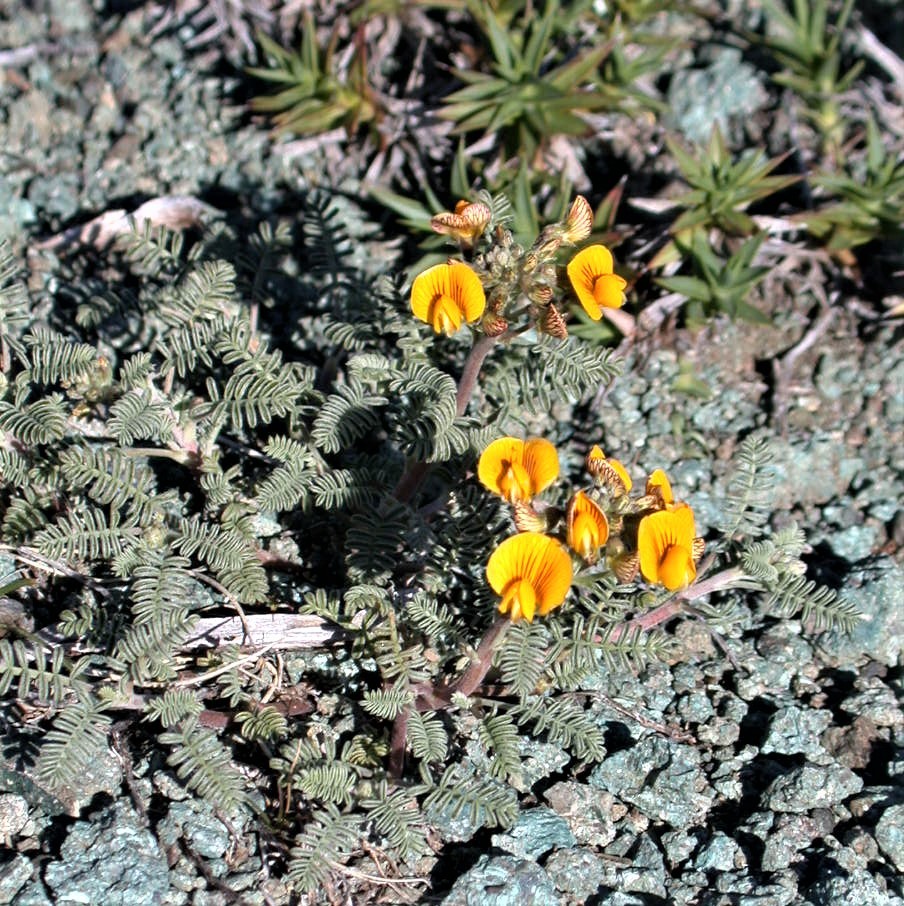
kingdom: Plantae
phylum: Tracheophyta
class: Magnoliopsida
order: Fabales
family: Fabaceae
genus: Adesmia
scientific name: Adesmia corymbosa
